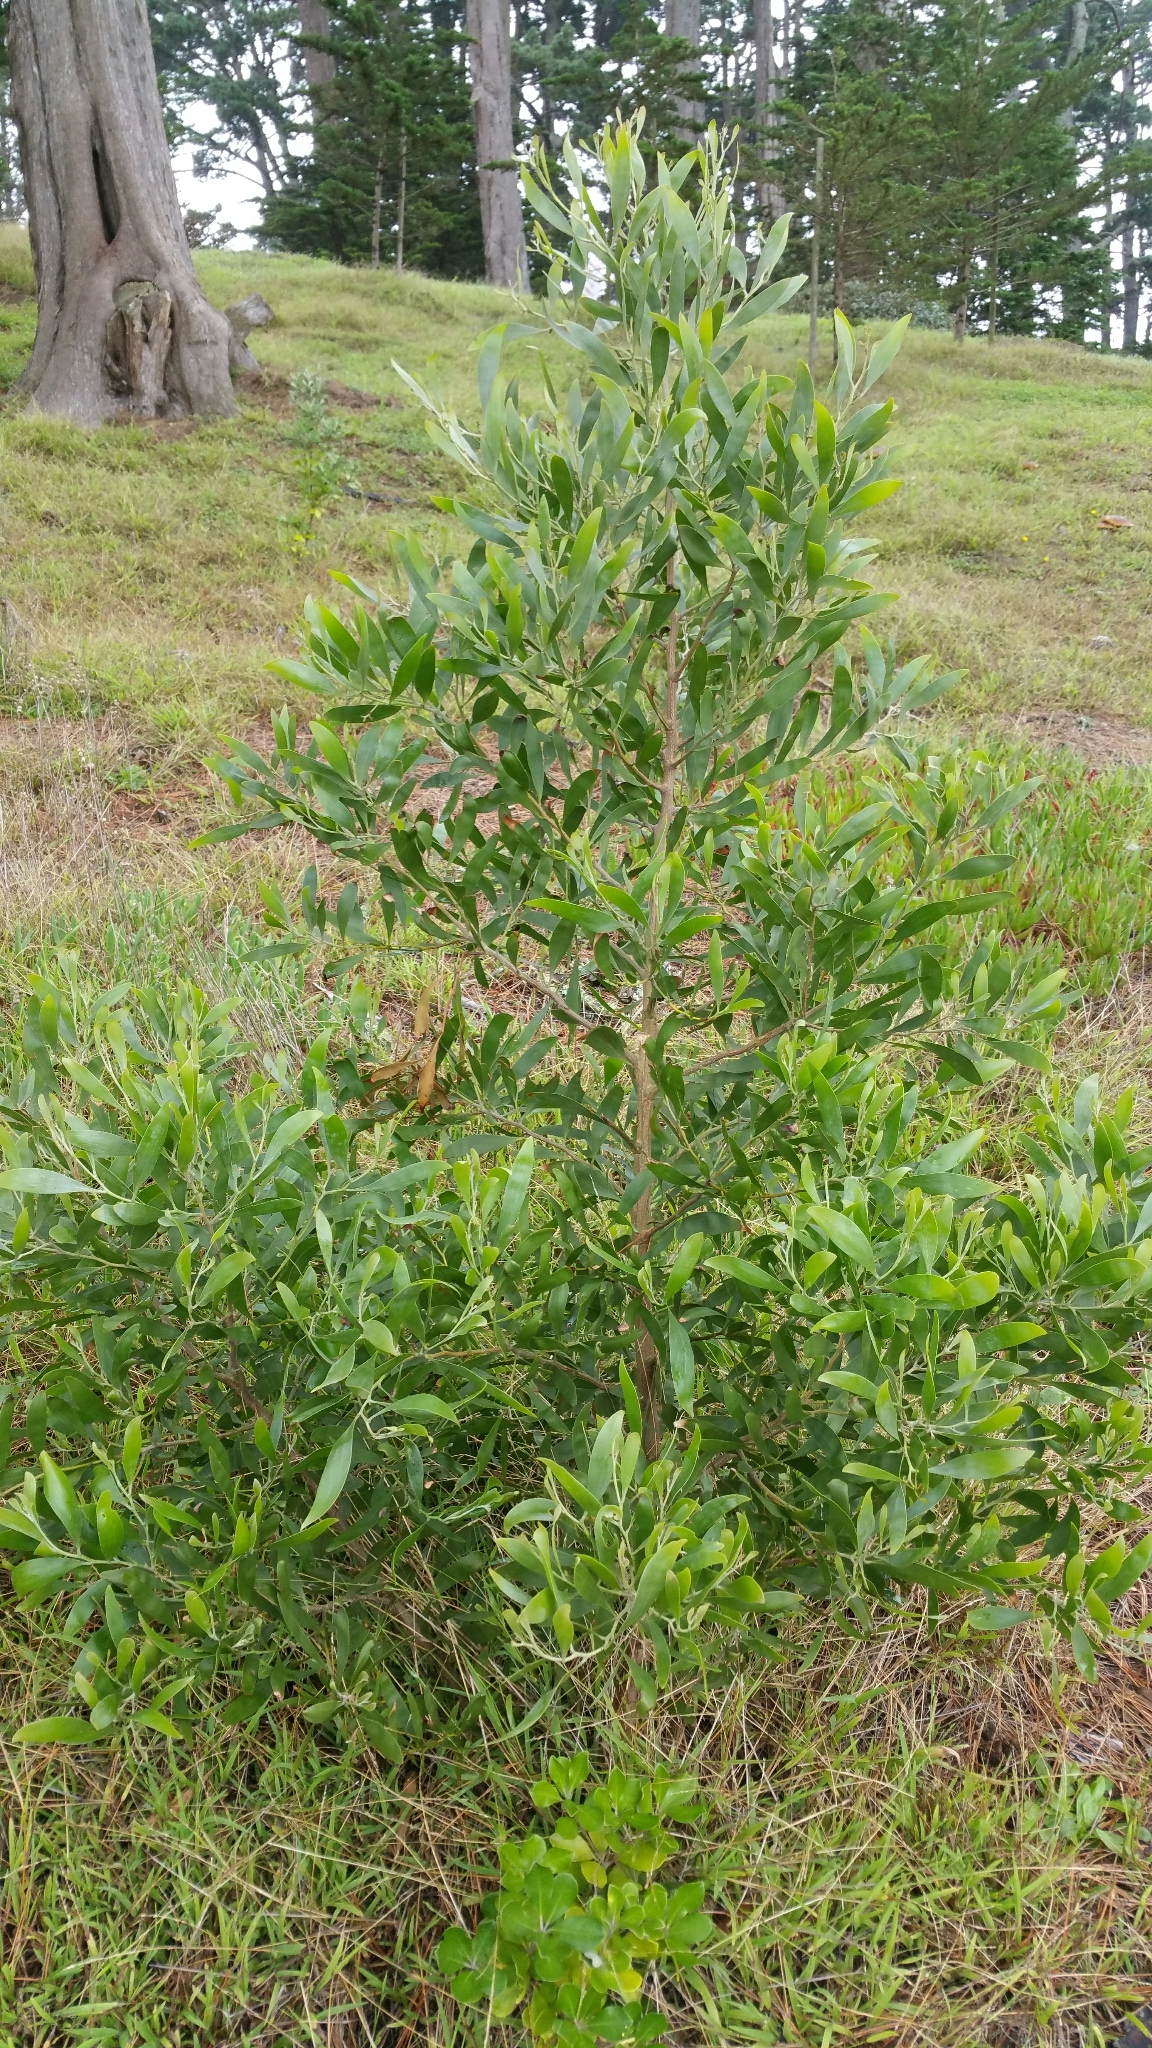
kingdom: Plantae
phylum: Tracheophyta
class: Magnoliopsida
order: Fabales
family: Fabaceae
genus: Acacia
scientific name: Acacia melanoxylon
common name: Blackwood
